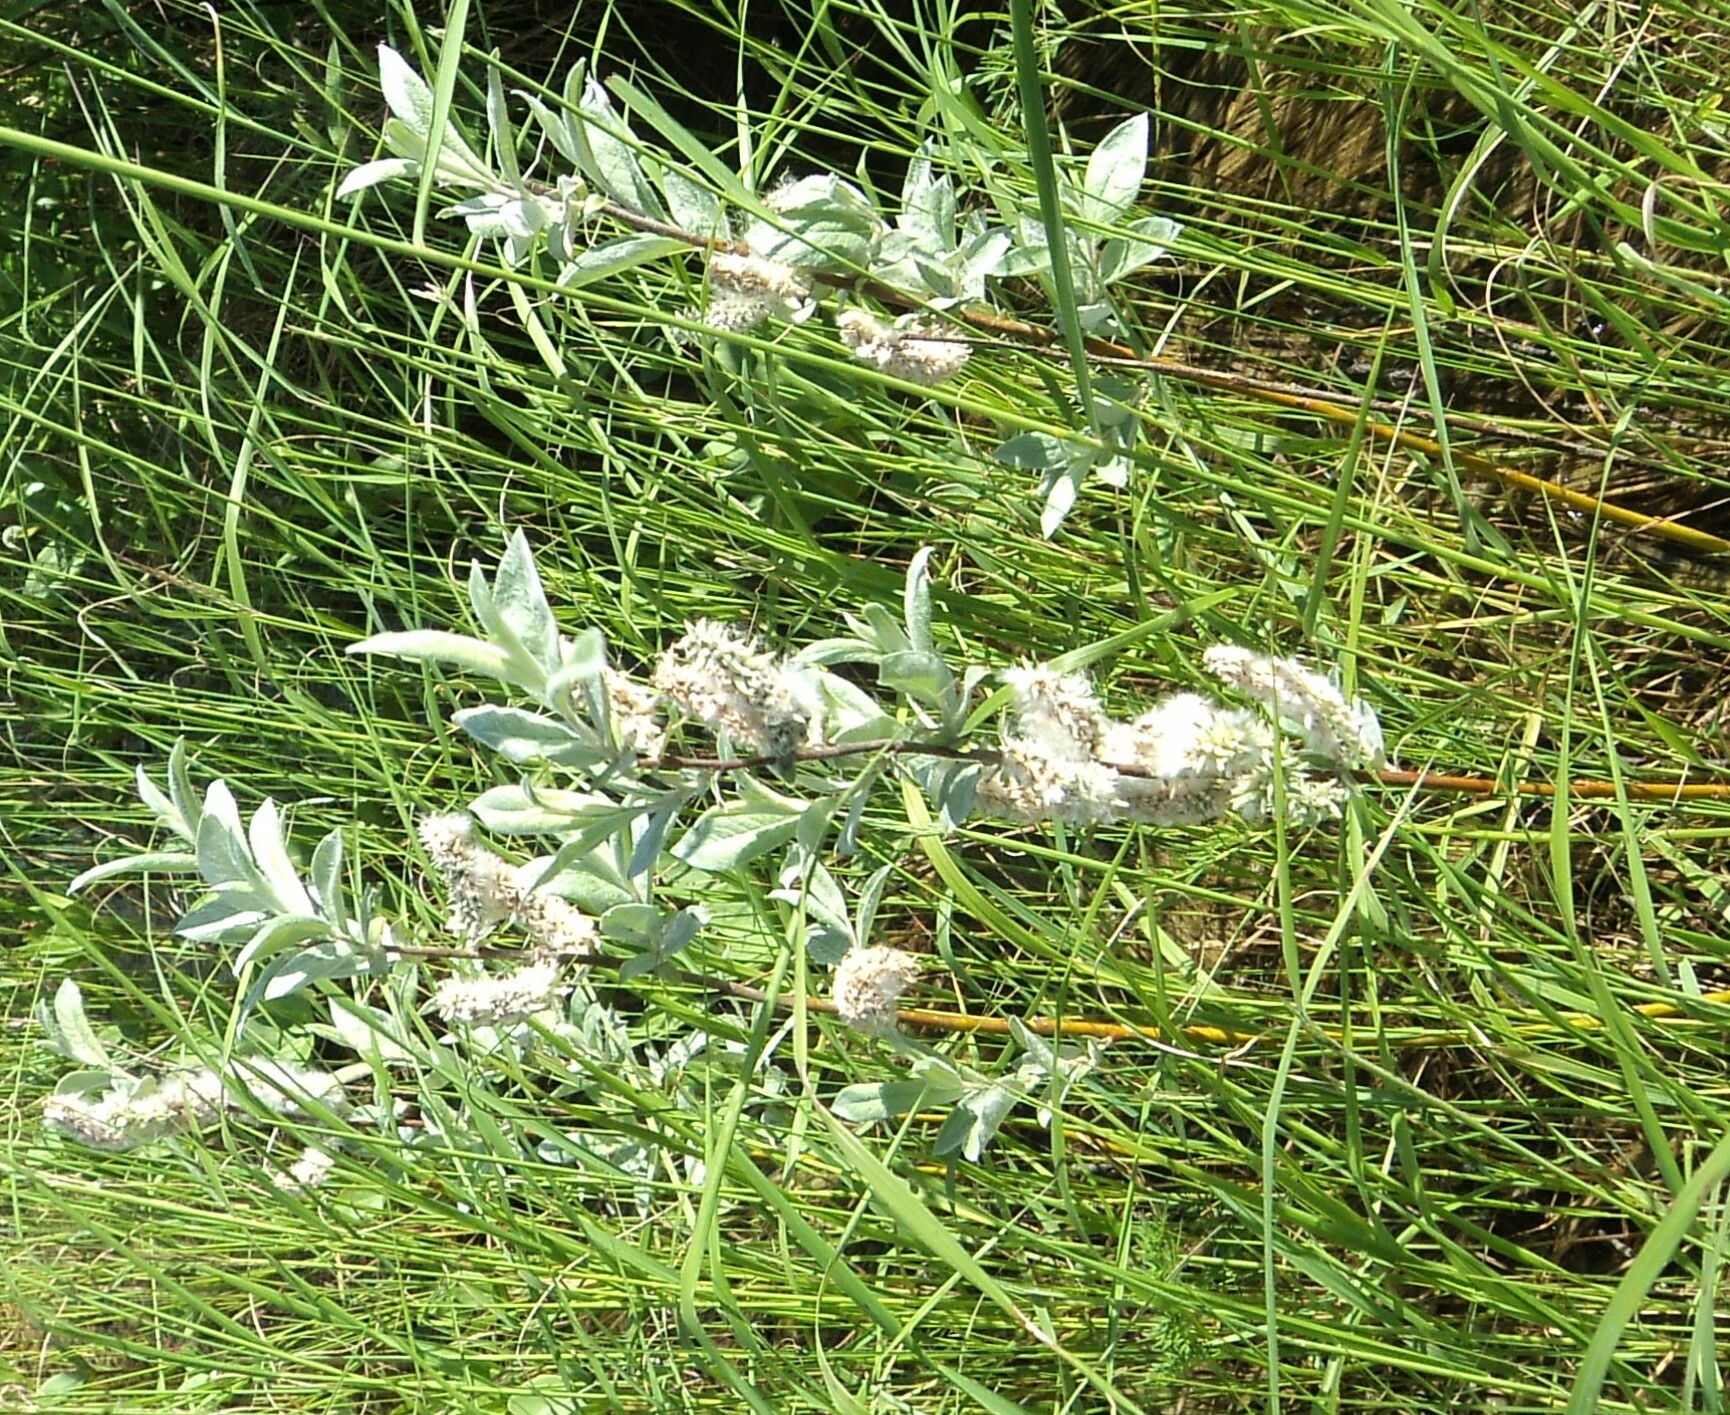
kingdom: Plantae
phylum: Tracheophyta
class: Magnoliopsida
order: Malpighiales
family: Salicaceae
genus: Salix
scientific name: Salix lapponum
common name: Downy willow
